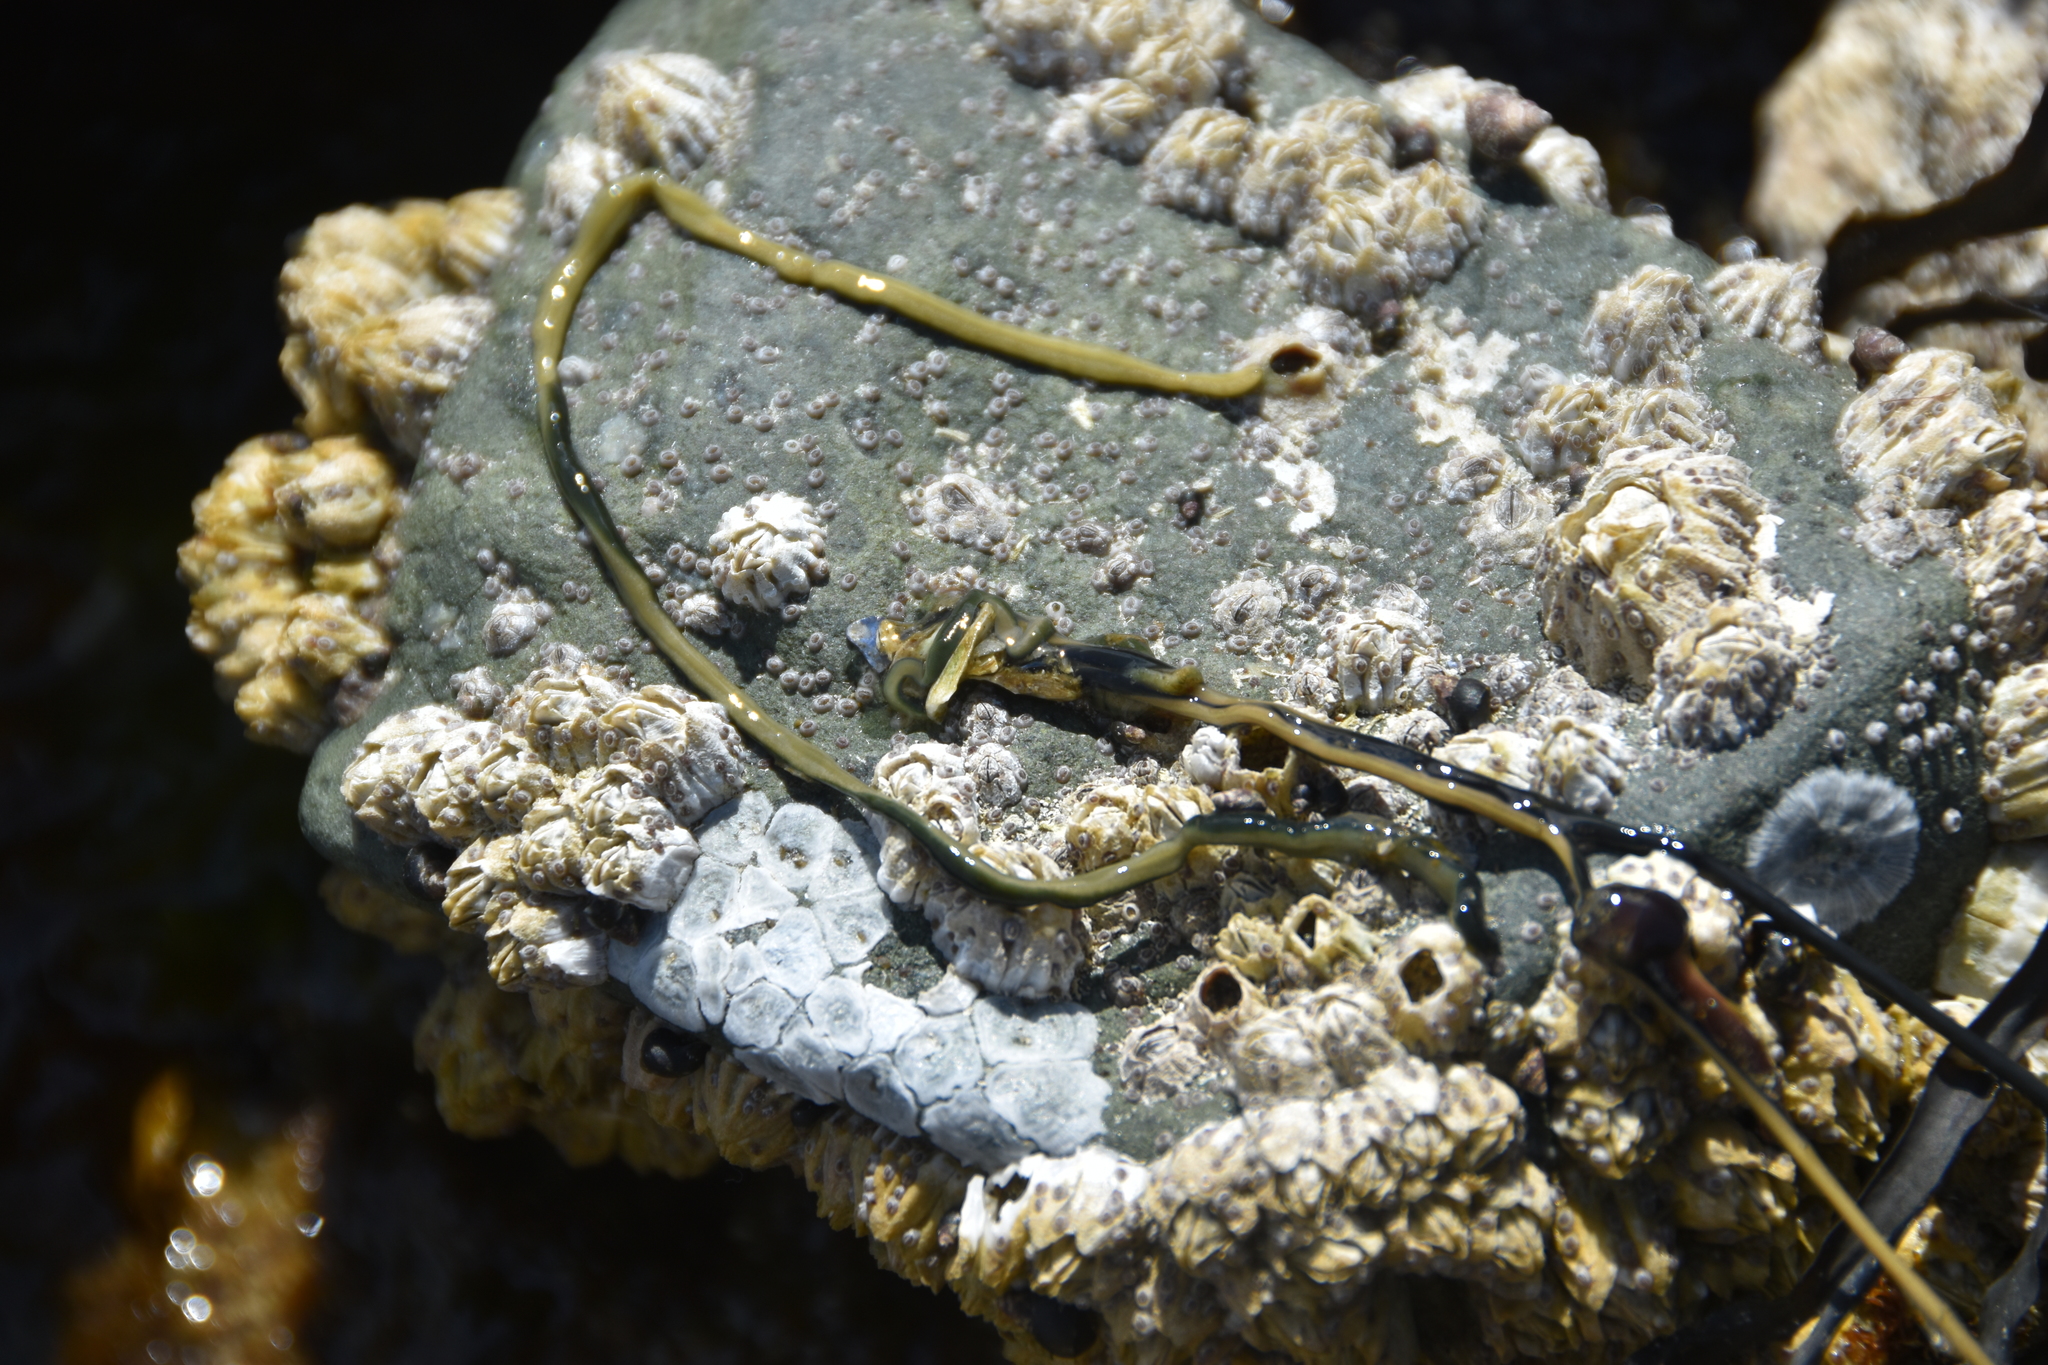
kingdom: Animalia
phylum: Nemertea
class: Hoplonemertea
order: Monostilifera
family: Emplectonematidae
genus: Emplectonema
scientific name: Emplectonema gracile
